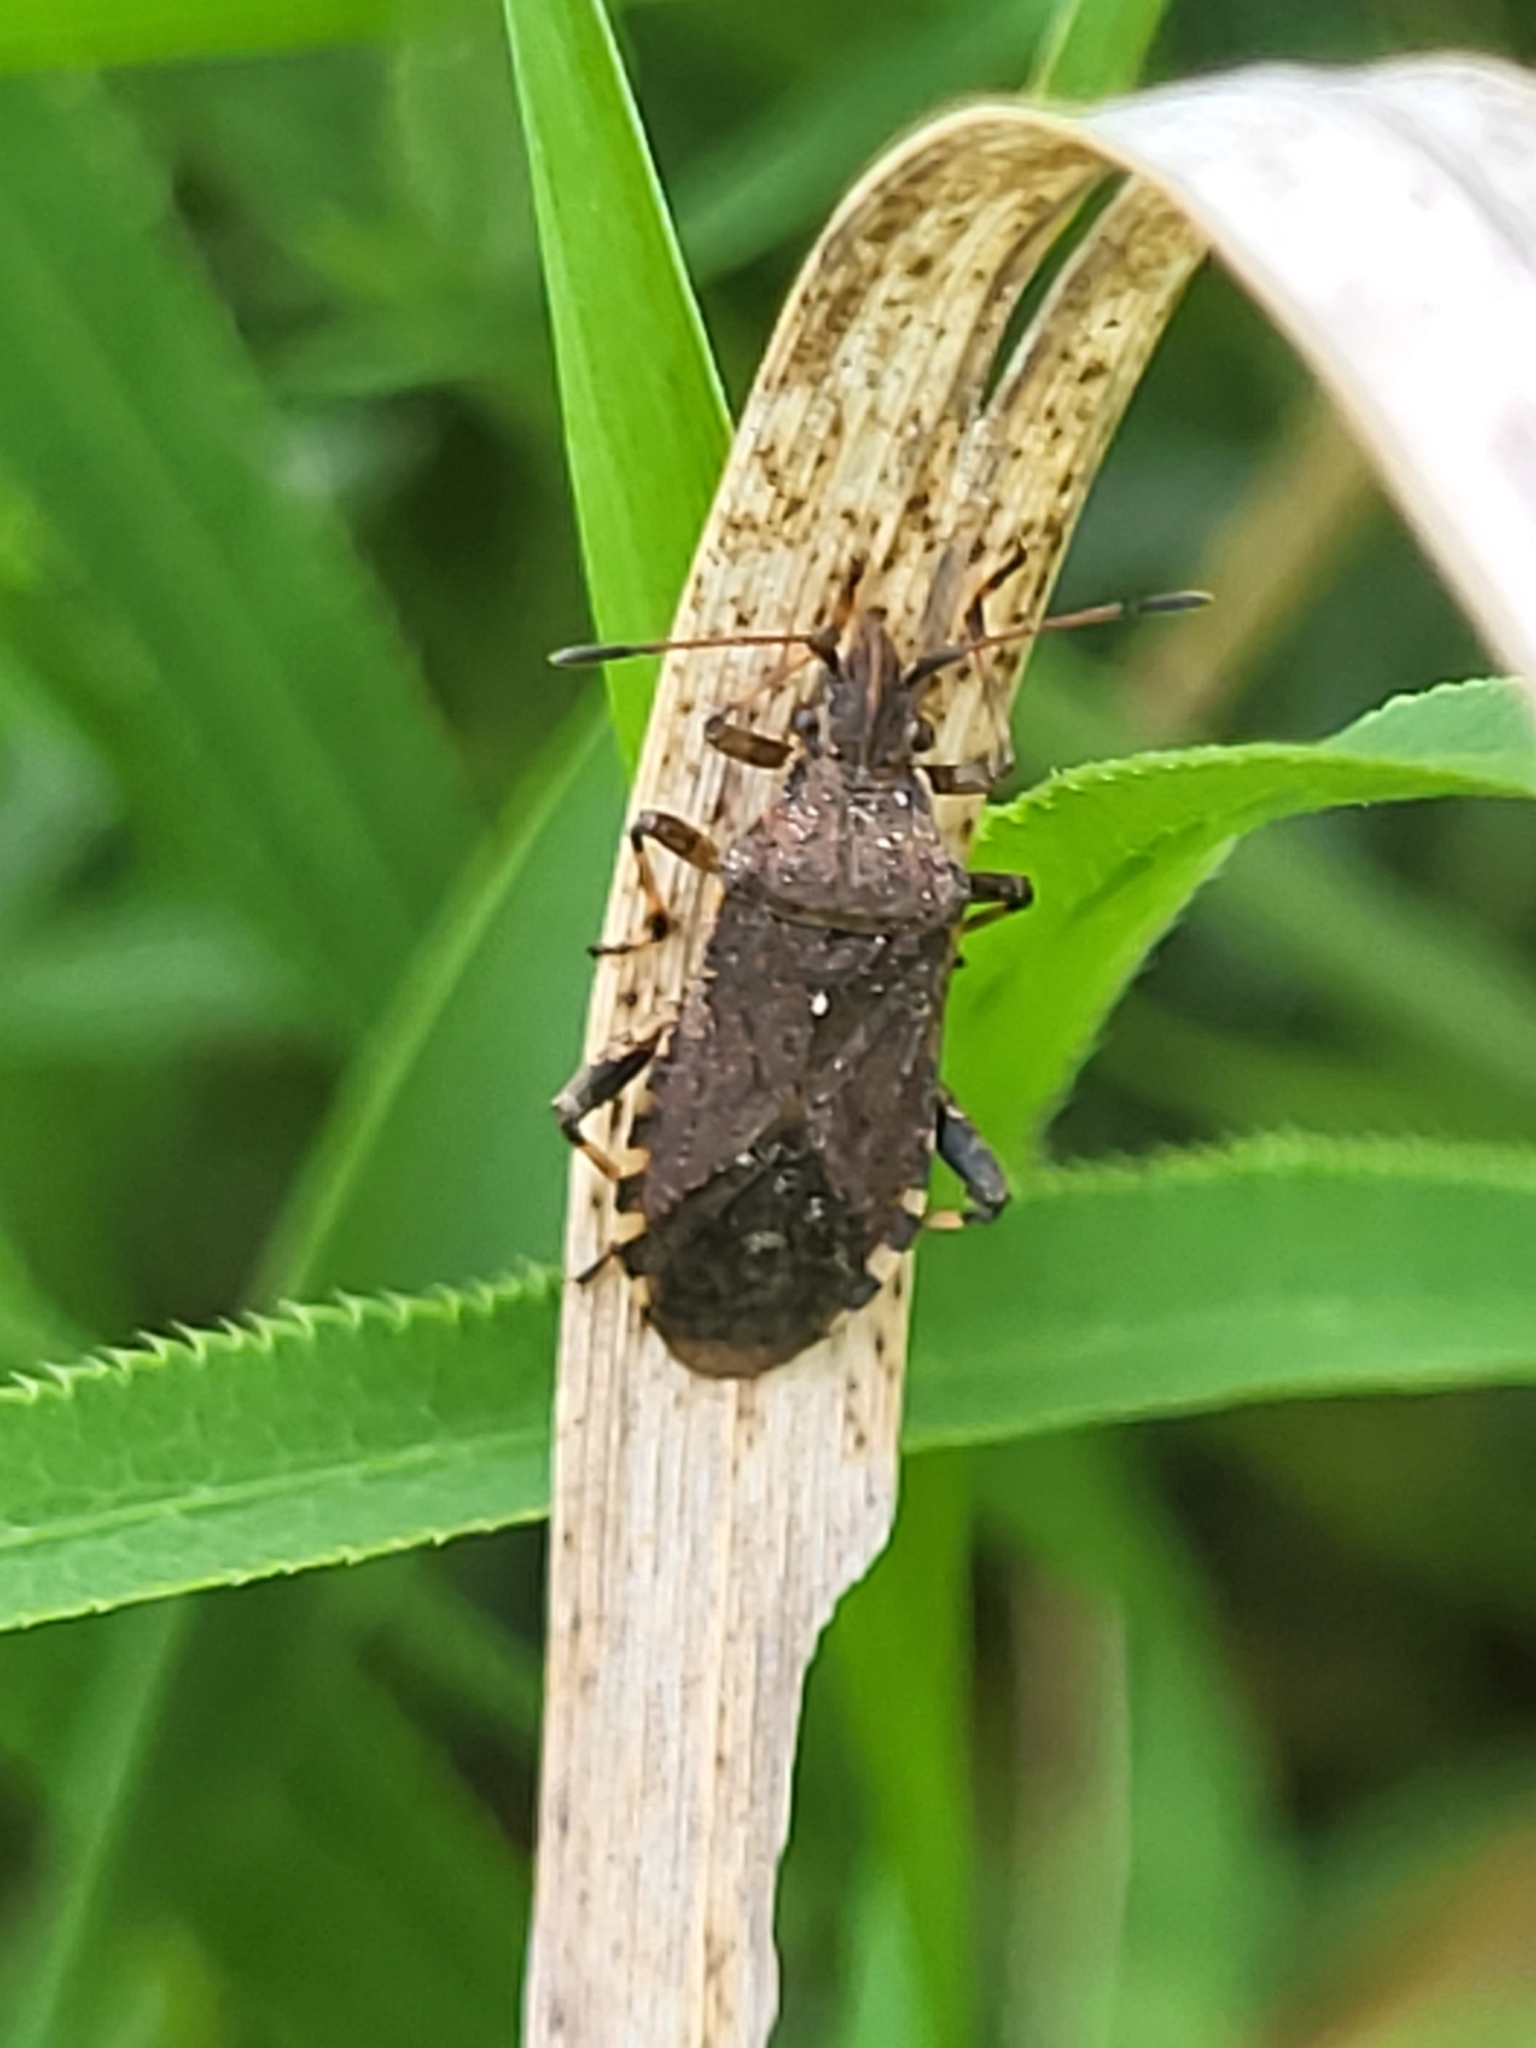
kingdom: Animalia
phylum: Arthropoda
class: Insecta
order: Hemiptera
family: Coreidae
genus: Ceraleptus
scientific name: Ceraleptus gracilicornis
